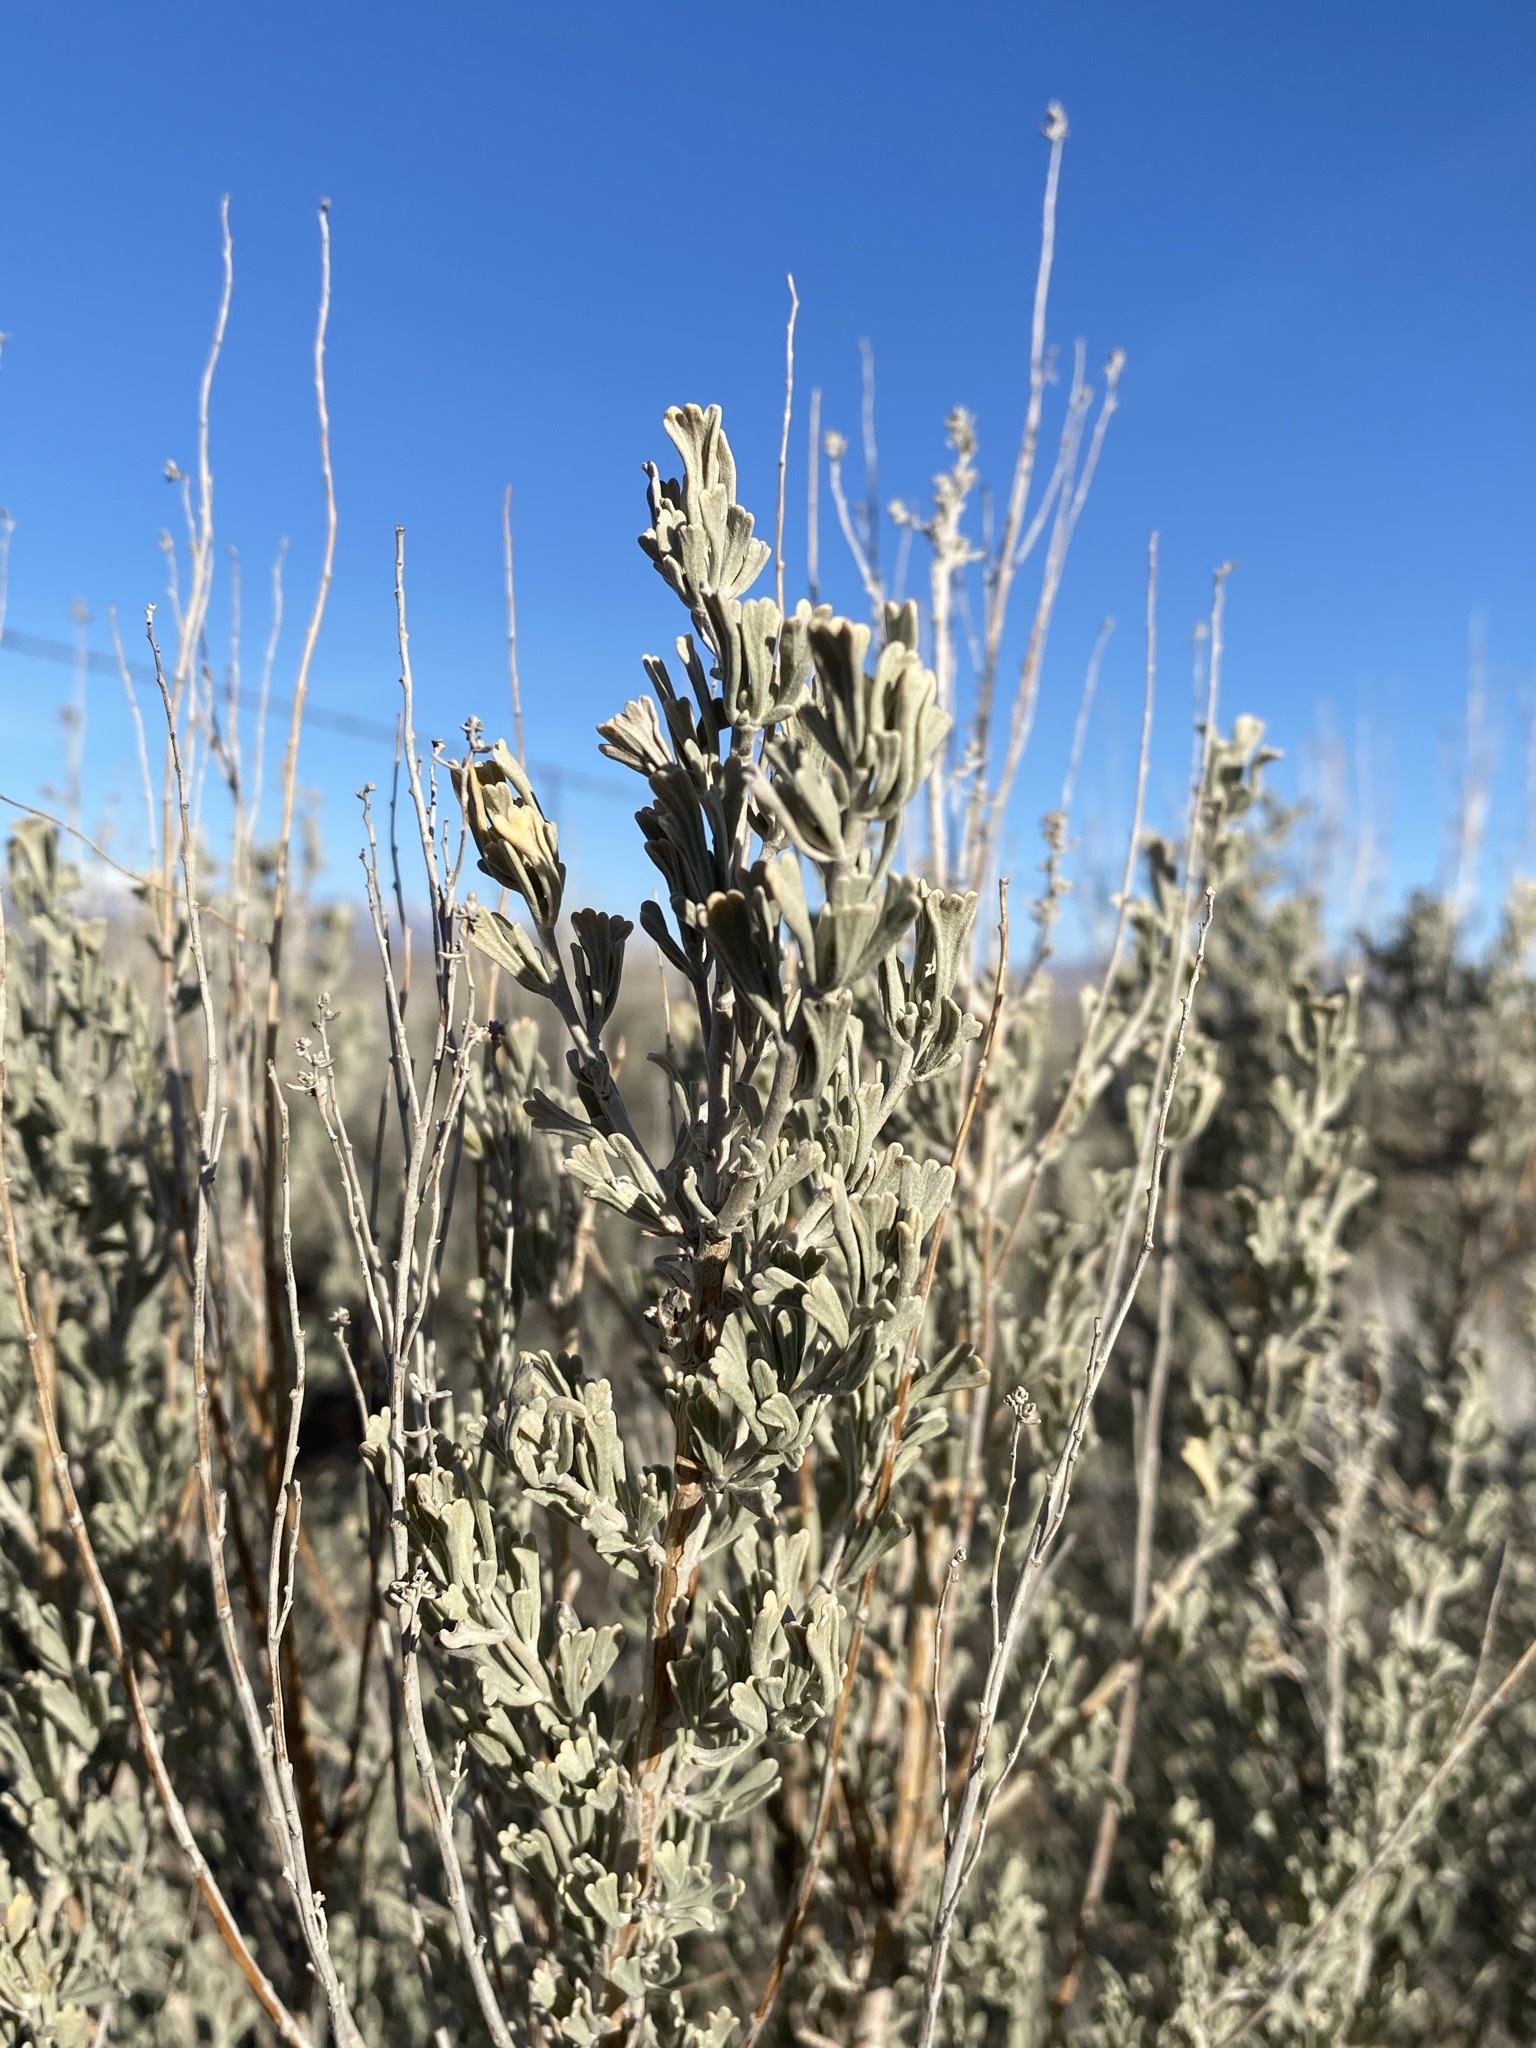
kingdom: Plantae
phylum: Tracheophyta
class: Magnoliopsida
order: Asterales
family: Asteraceae
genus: Artemisia
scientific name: Artemisia tridentata
